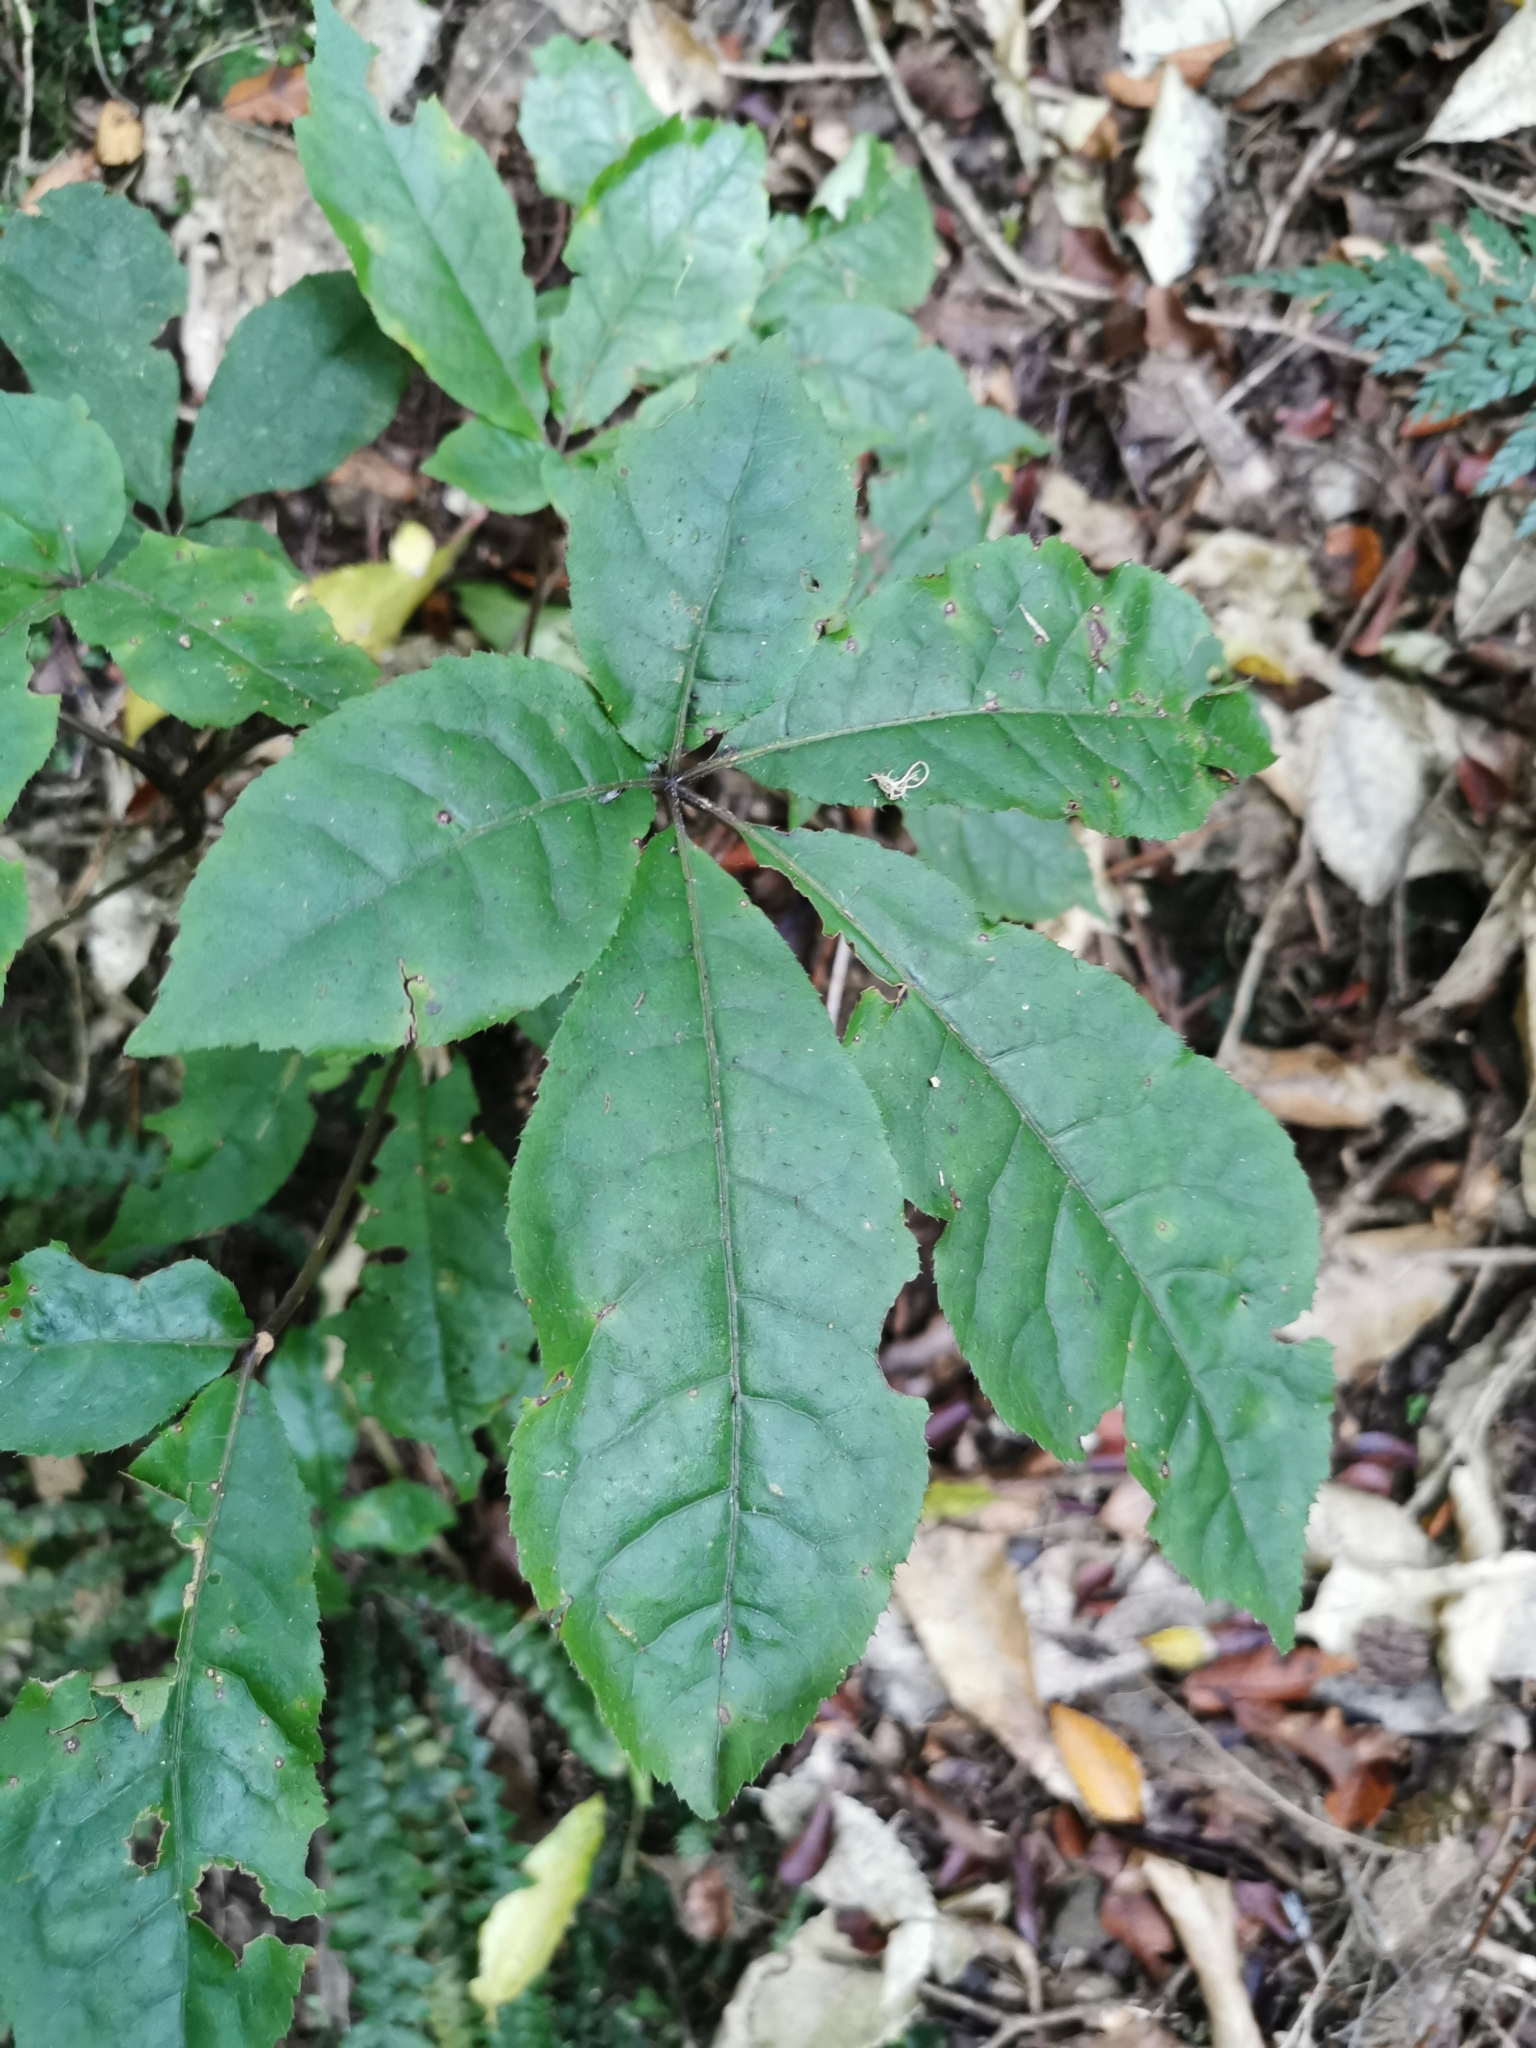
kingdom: Plantae
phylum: Tracheophyta
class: Magnoliopsida
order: Apiales
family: Araliaceae
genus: Schefflera
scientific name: Schefflera digitata
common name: Pate
